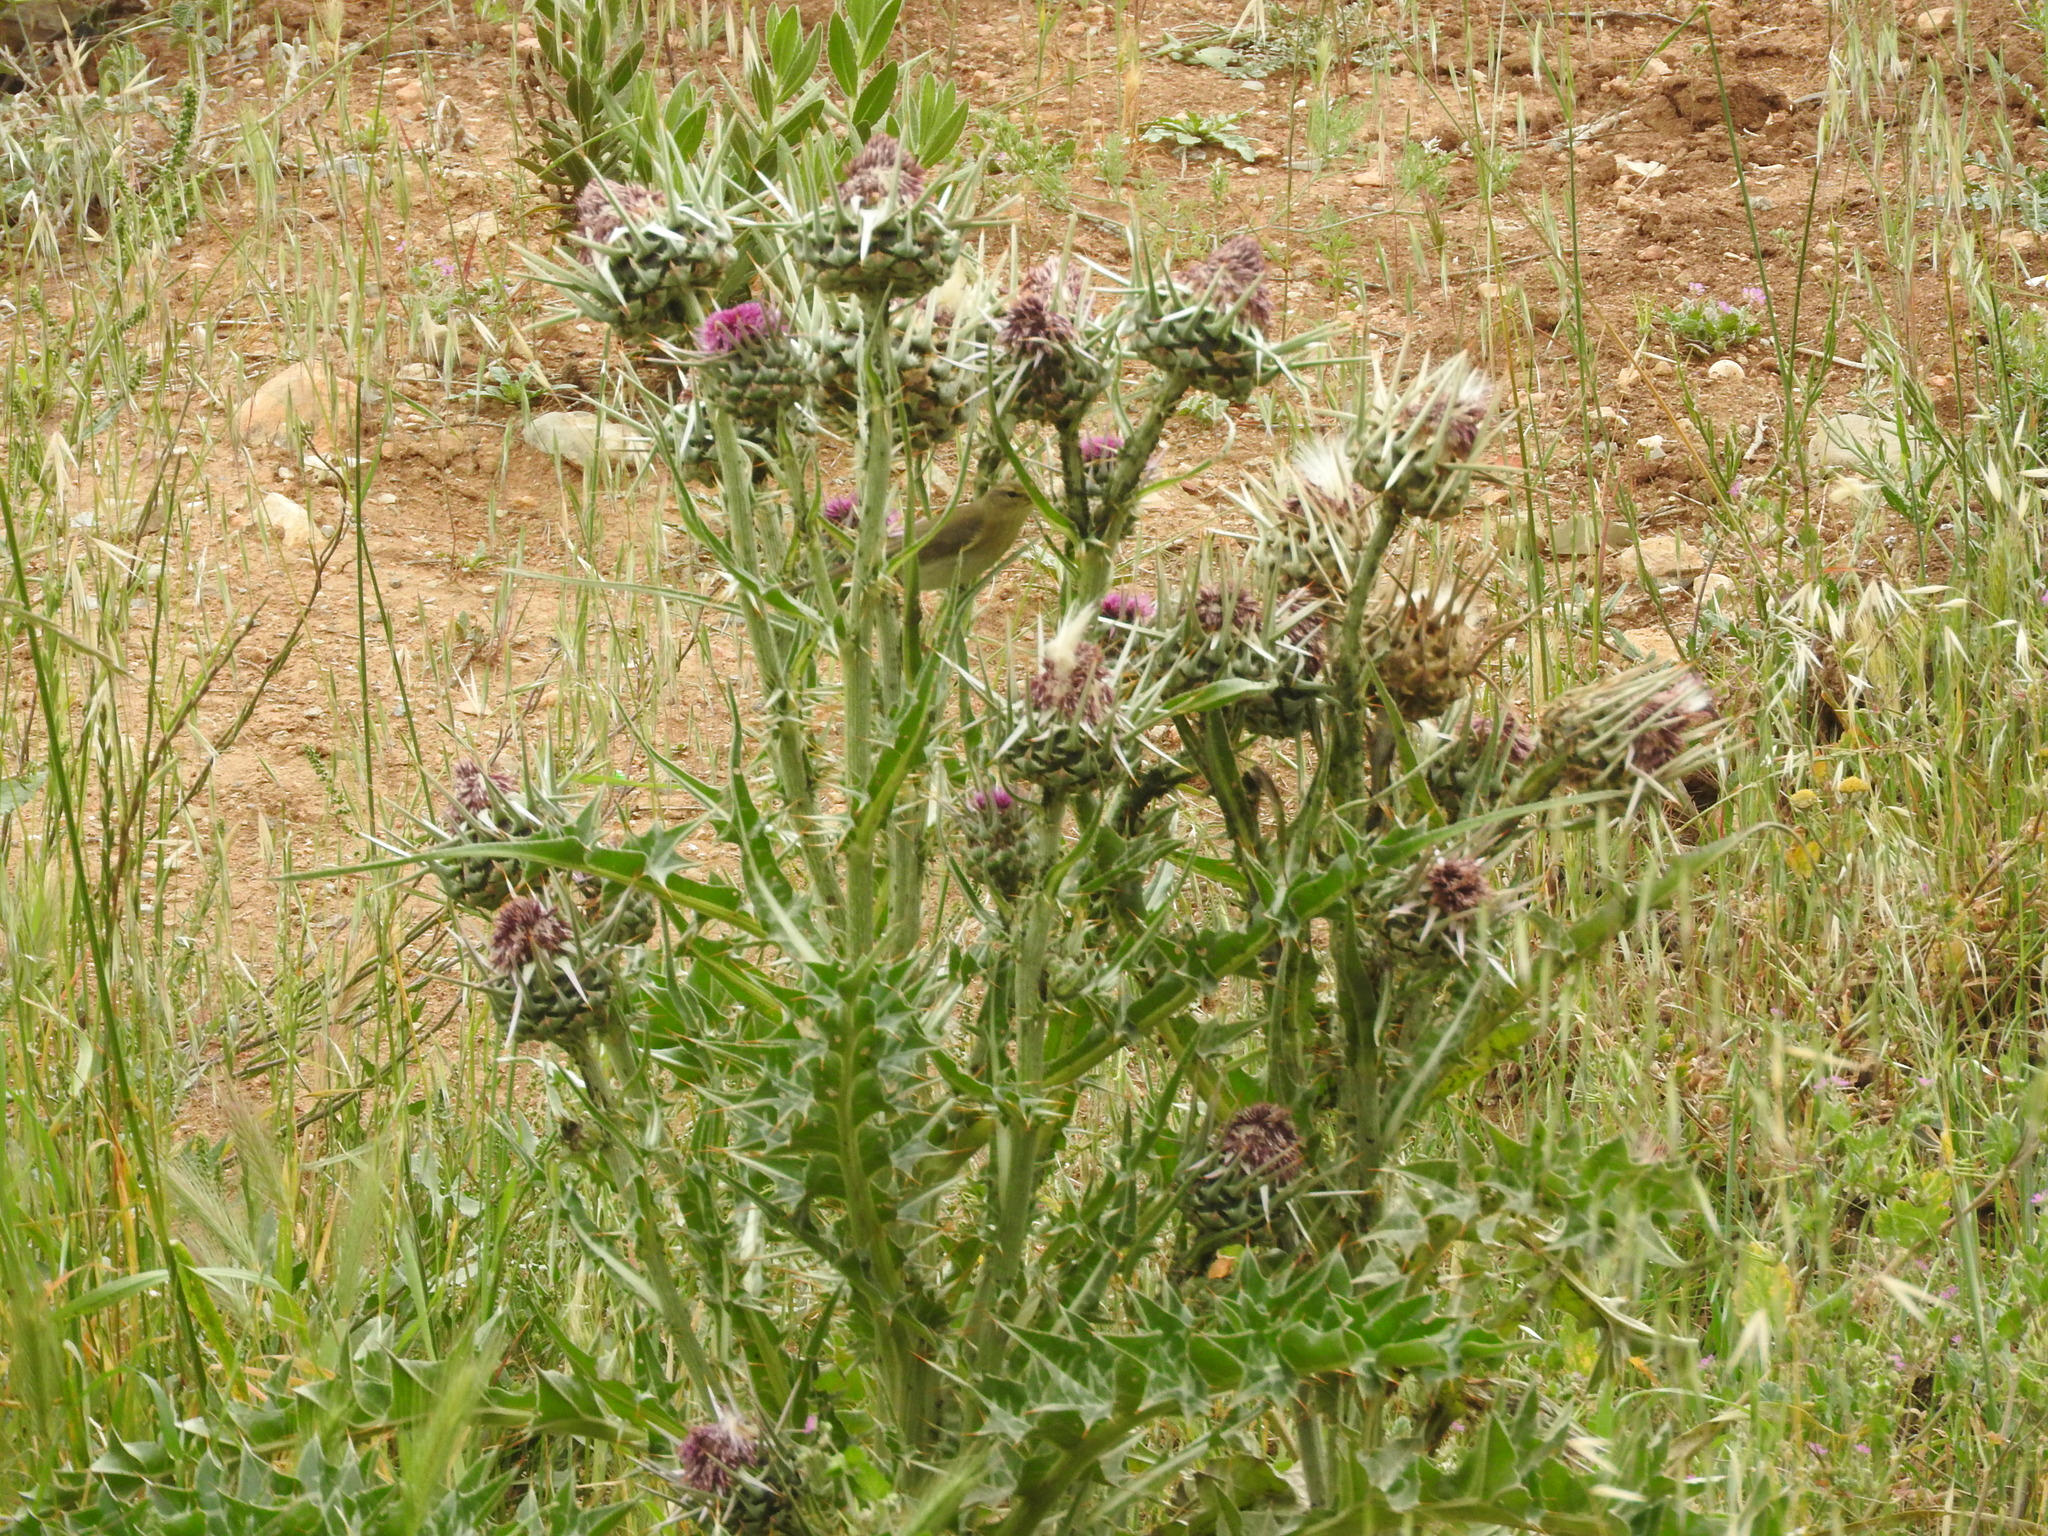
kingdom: Plantae
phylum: Tracheophyta
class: Magnoliopsida
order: Asterales
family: Asteraceae
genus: Silybum
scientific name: Silybum eburneum
